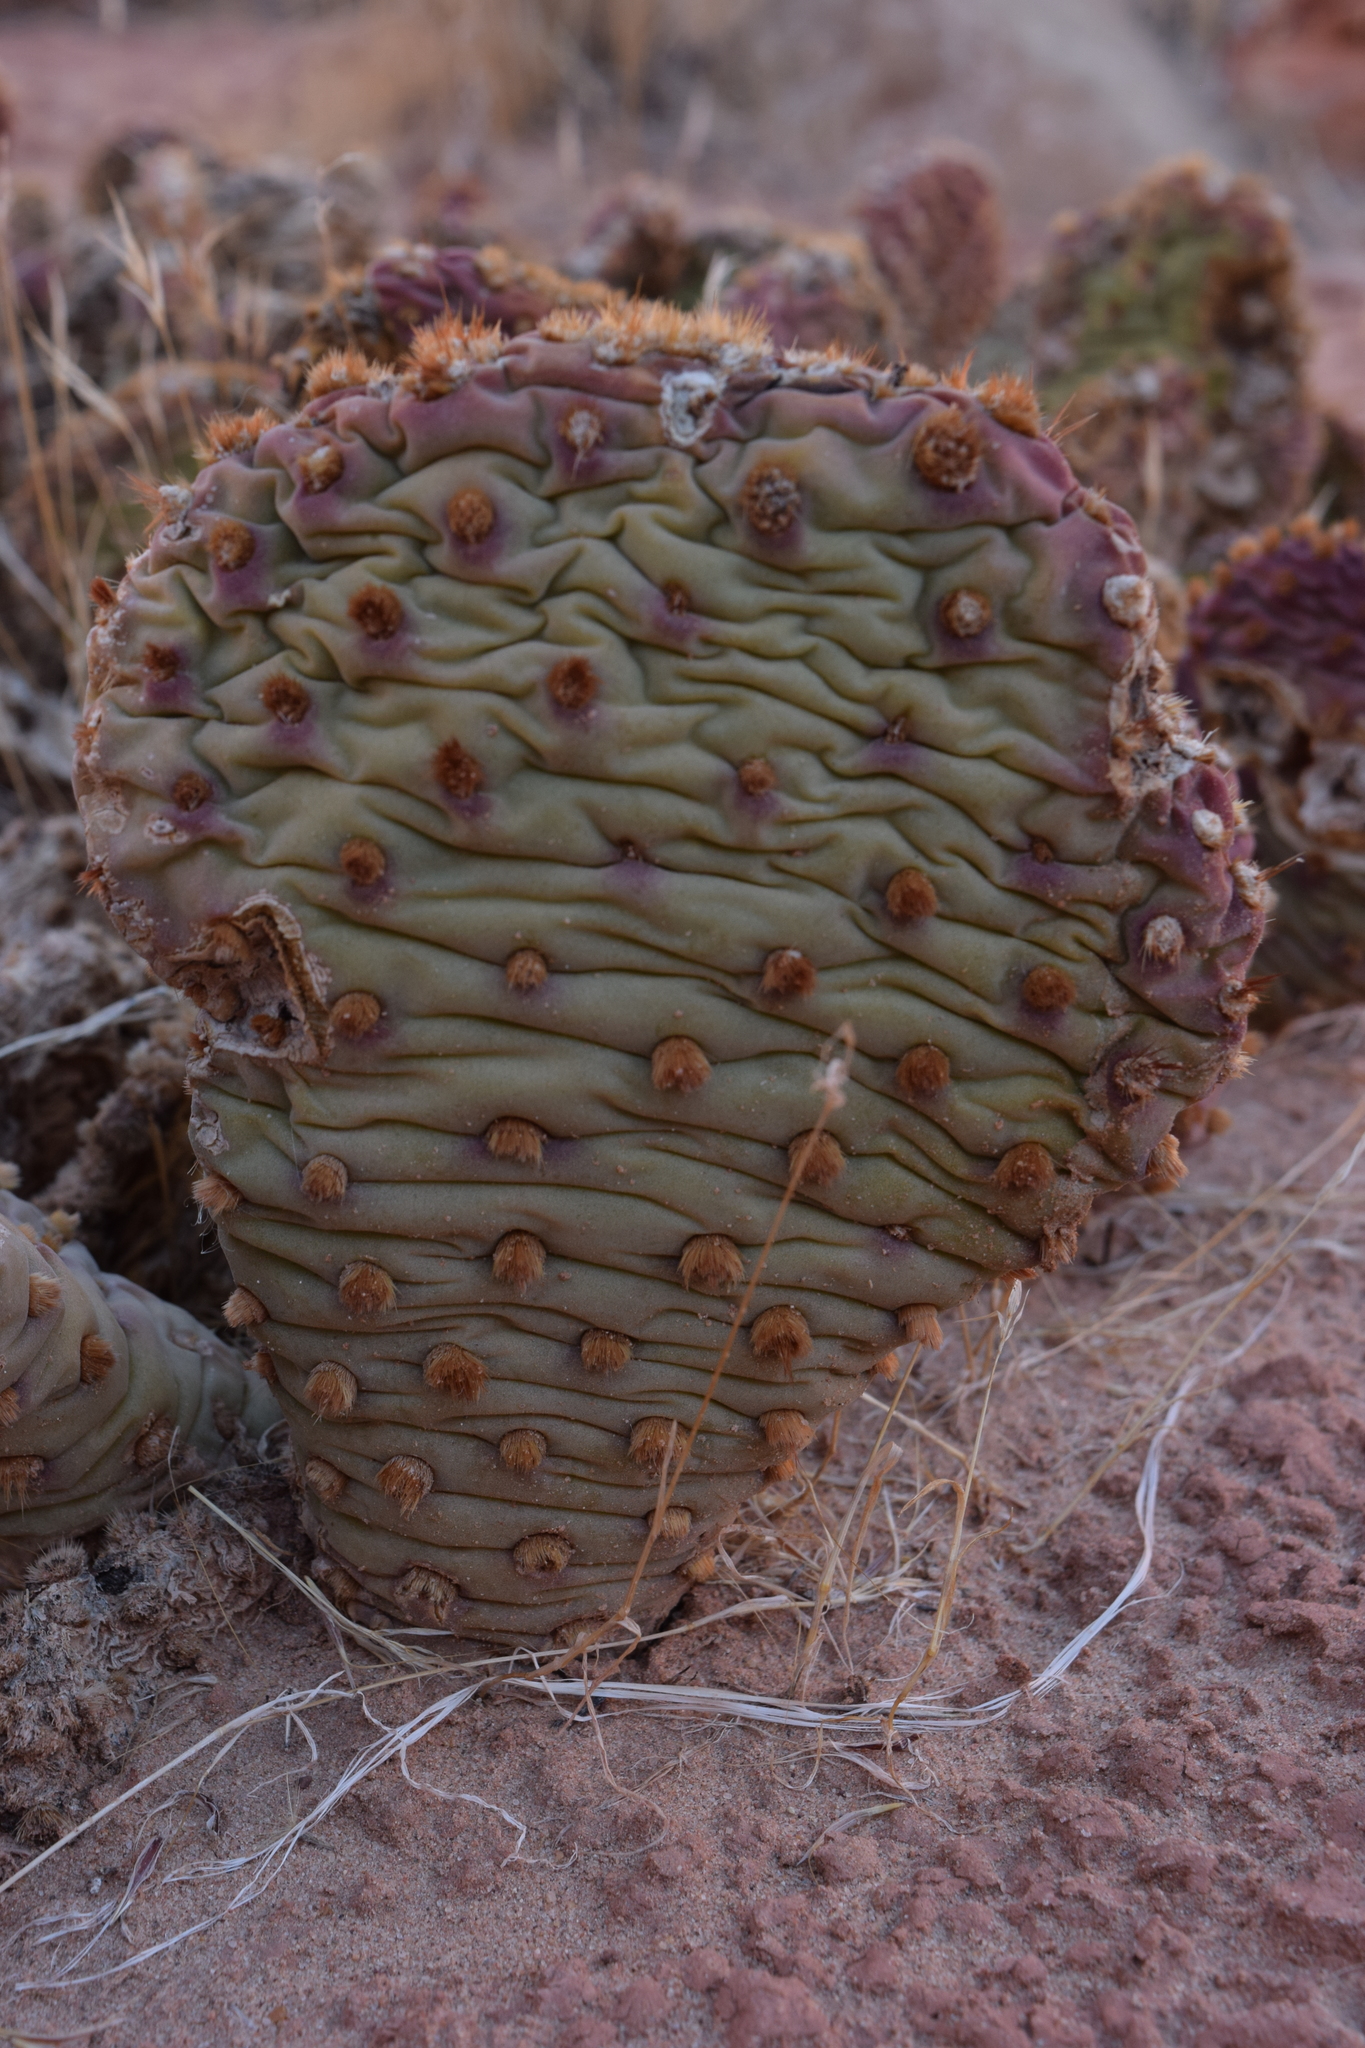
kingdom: Plantae
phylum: Tracheophyta
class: Magnoliopsida
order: Caryophyllales
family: Cactaceae
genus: Opuntia
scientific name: Opuntia basilaris
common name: Beavertail prickly-pear
